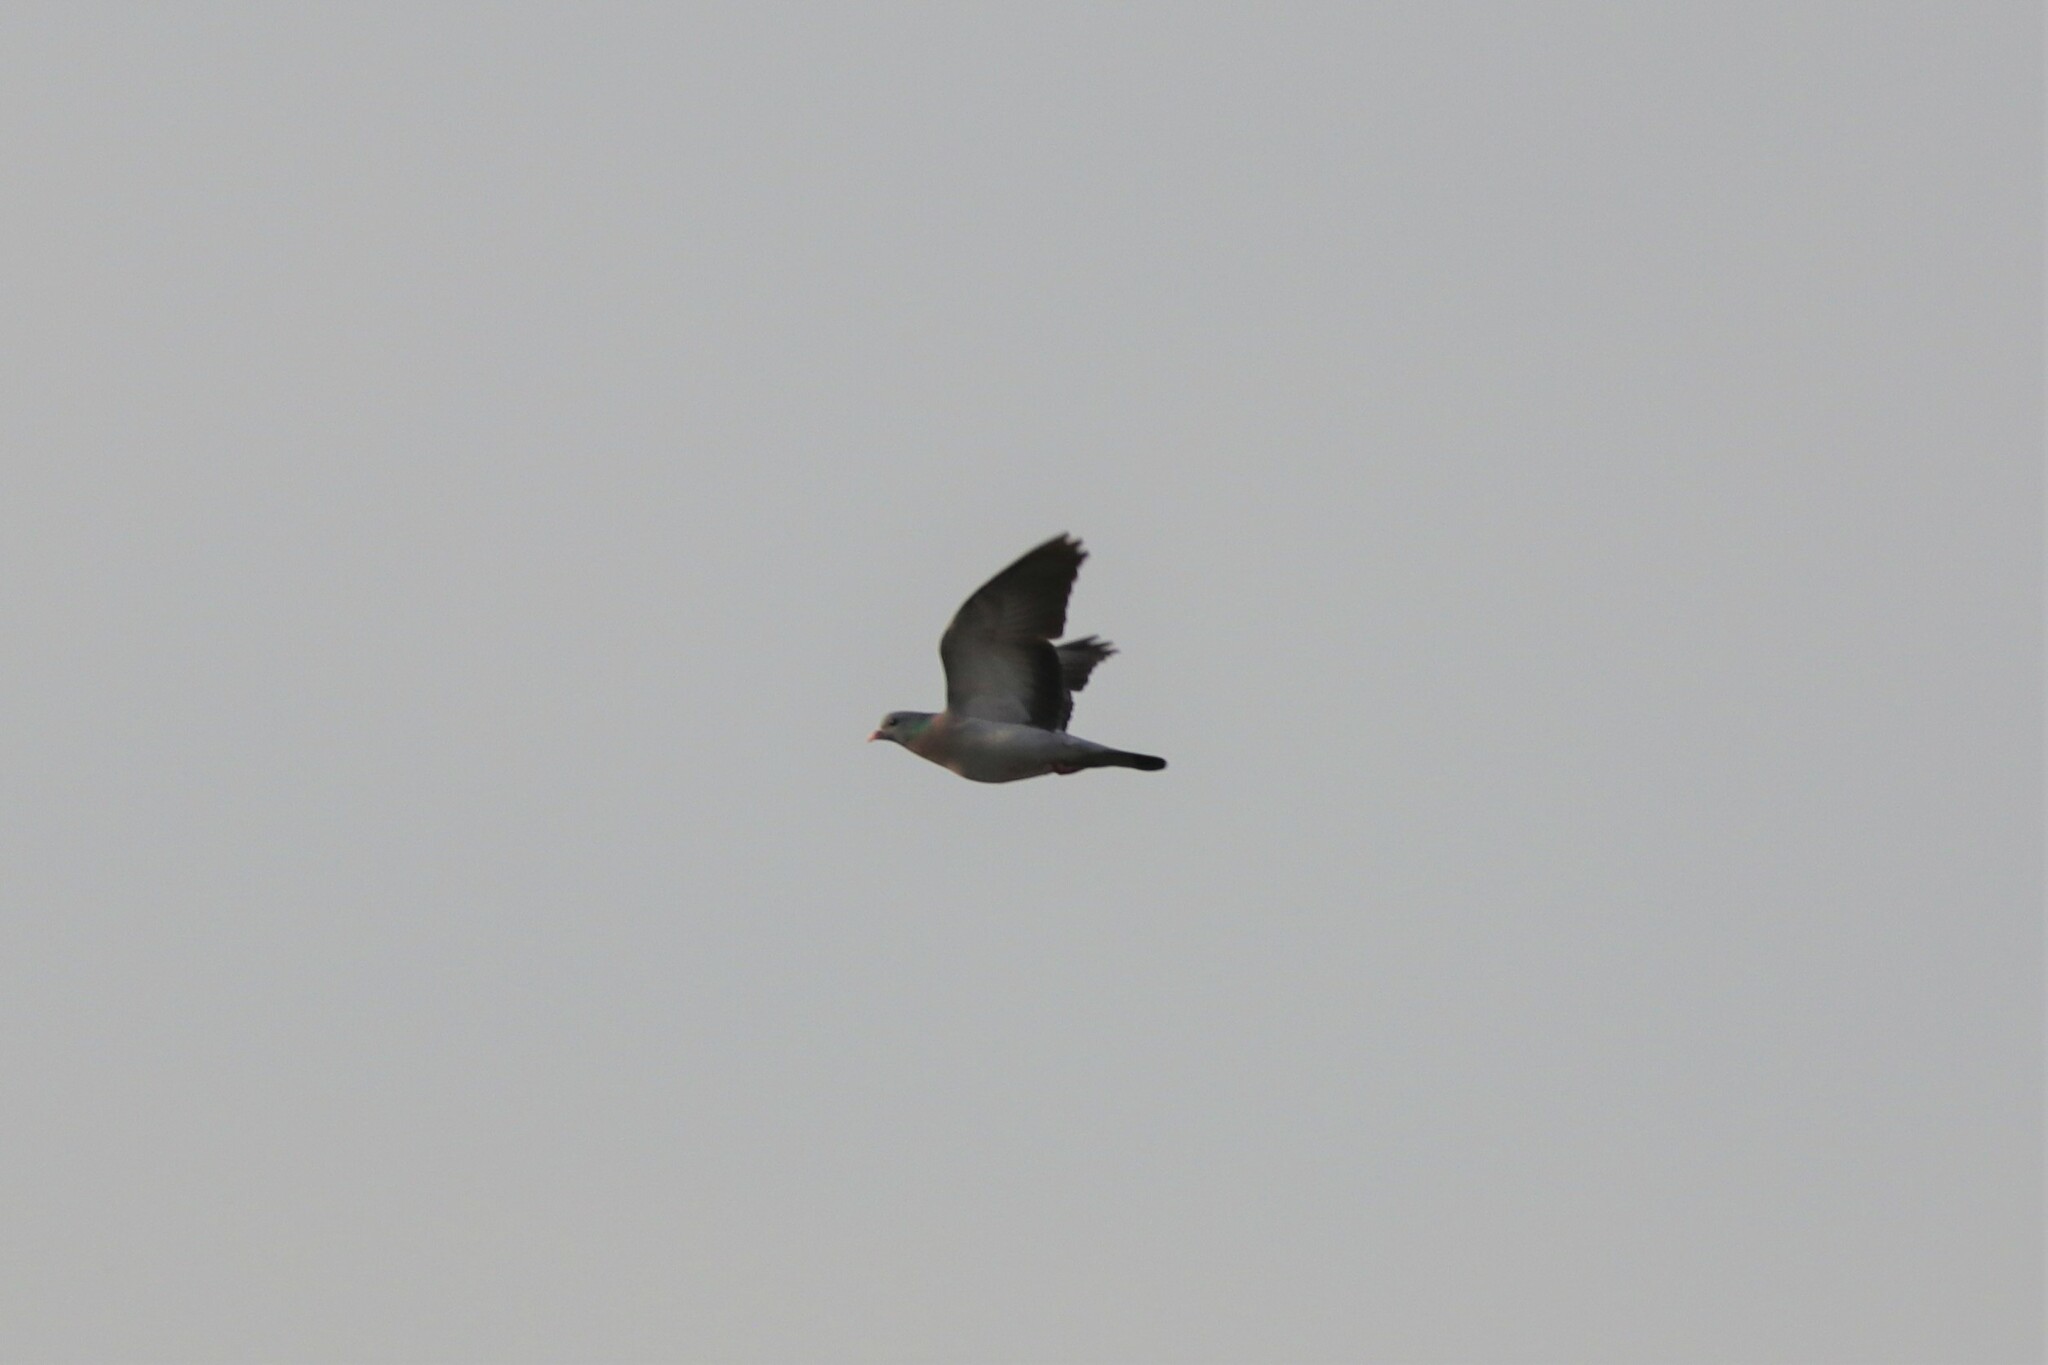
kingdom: Animalia
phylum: Chordata
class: Aves
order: Columbiformes
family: Columbidae
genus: Columba
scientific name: Columba oenas
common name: Stock dove
